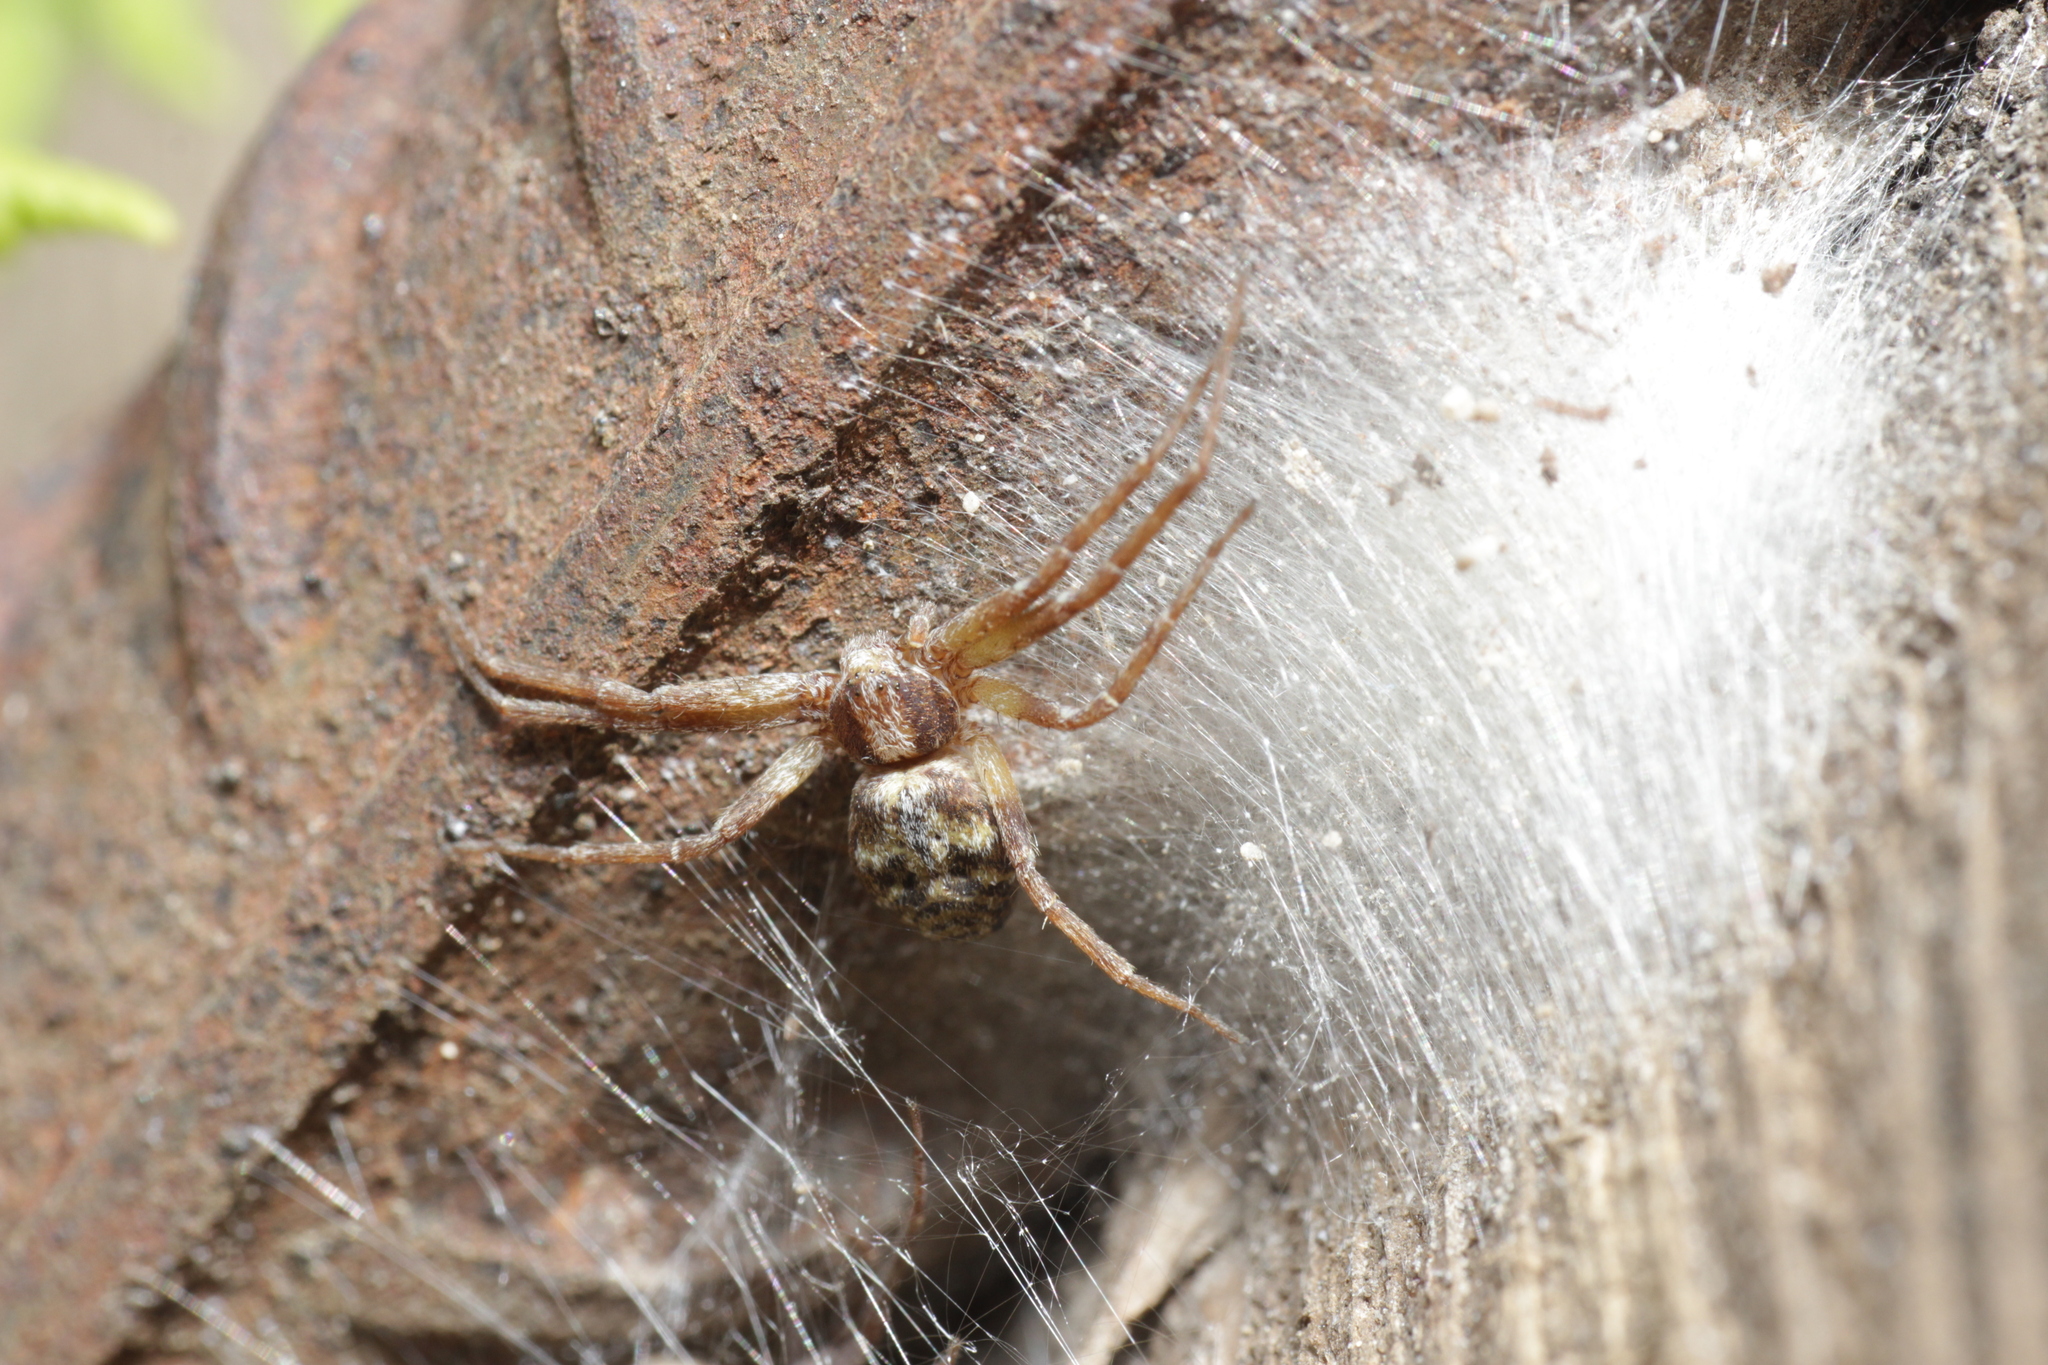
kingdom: Animalia
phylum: Arthropoda
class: Arachnida
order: Araneae
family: Philodromidae
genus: Philodromus
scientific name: Philodromus
